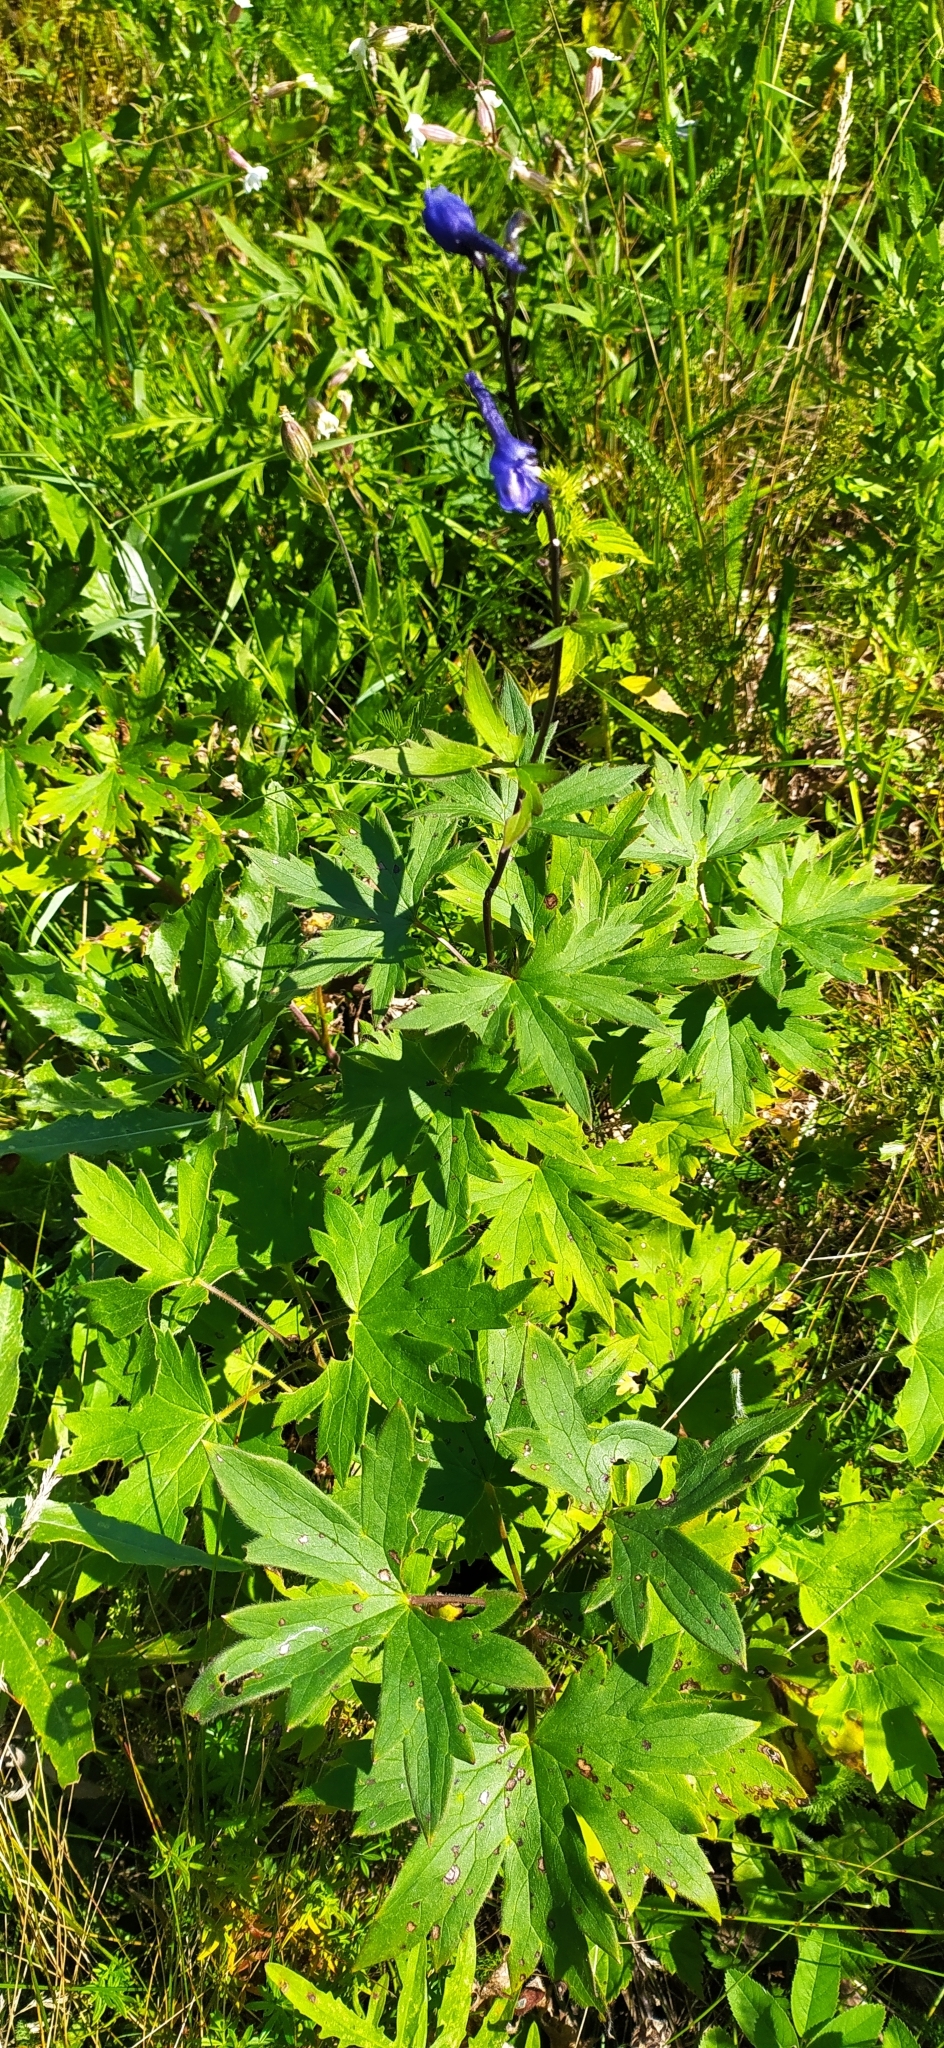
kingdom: Plantae
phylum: Tracheophyta
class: Magnoliopsida
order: Ranunculales
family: Ranunculaceae
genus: Delphinium
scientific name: Delphinium elatum
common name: Candle larkspur
